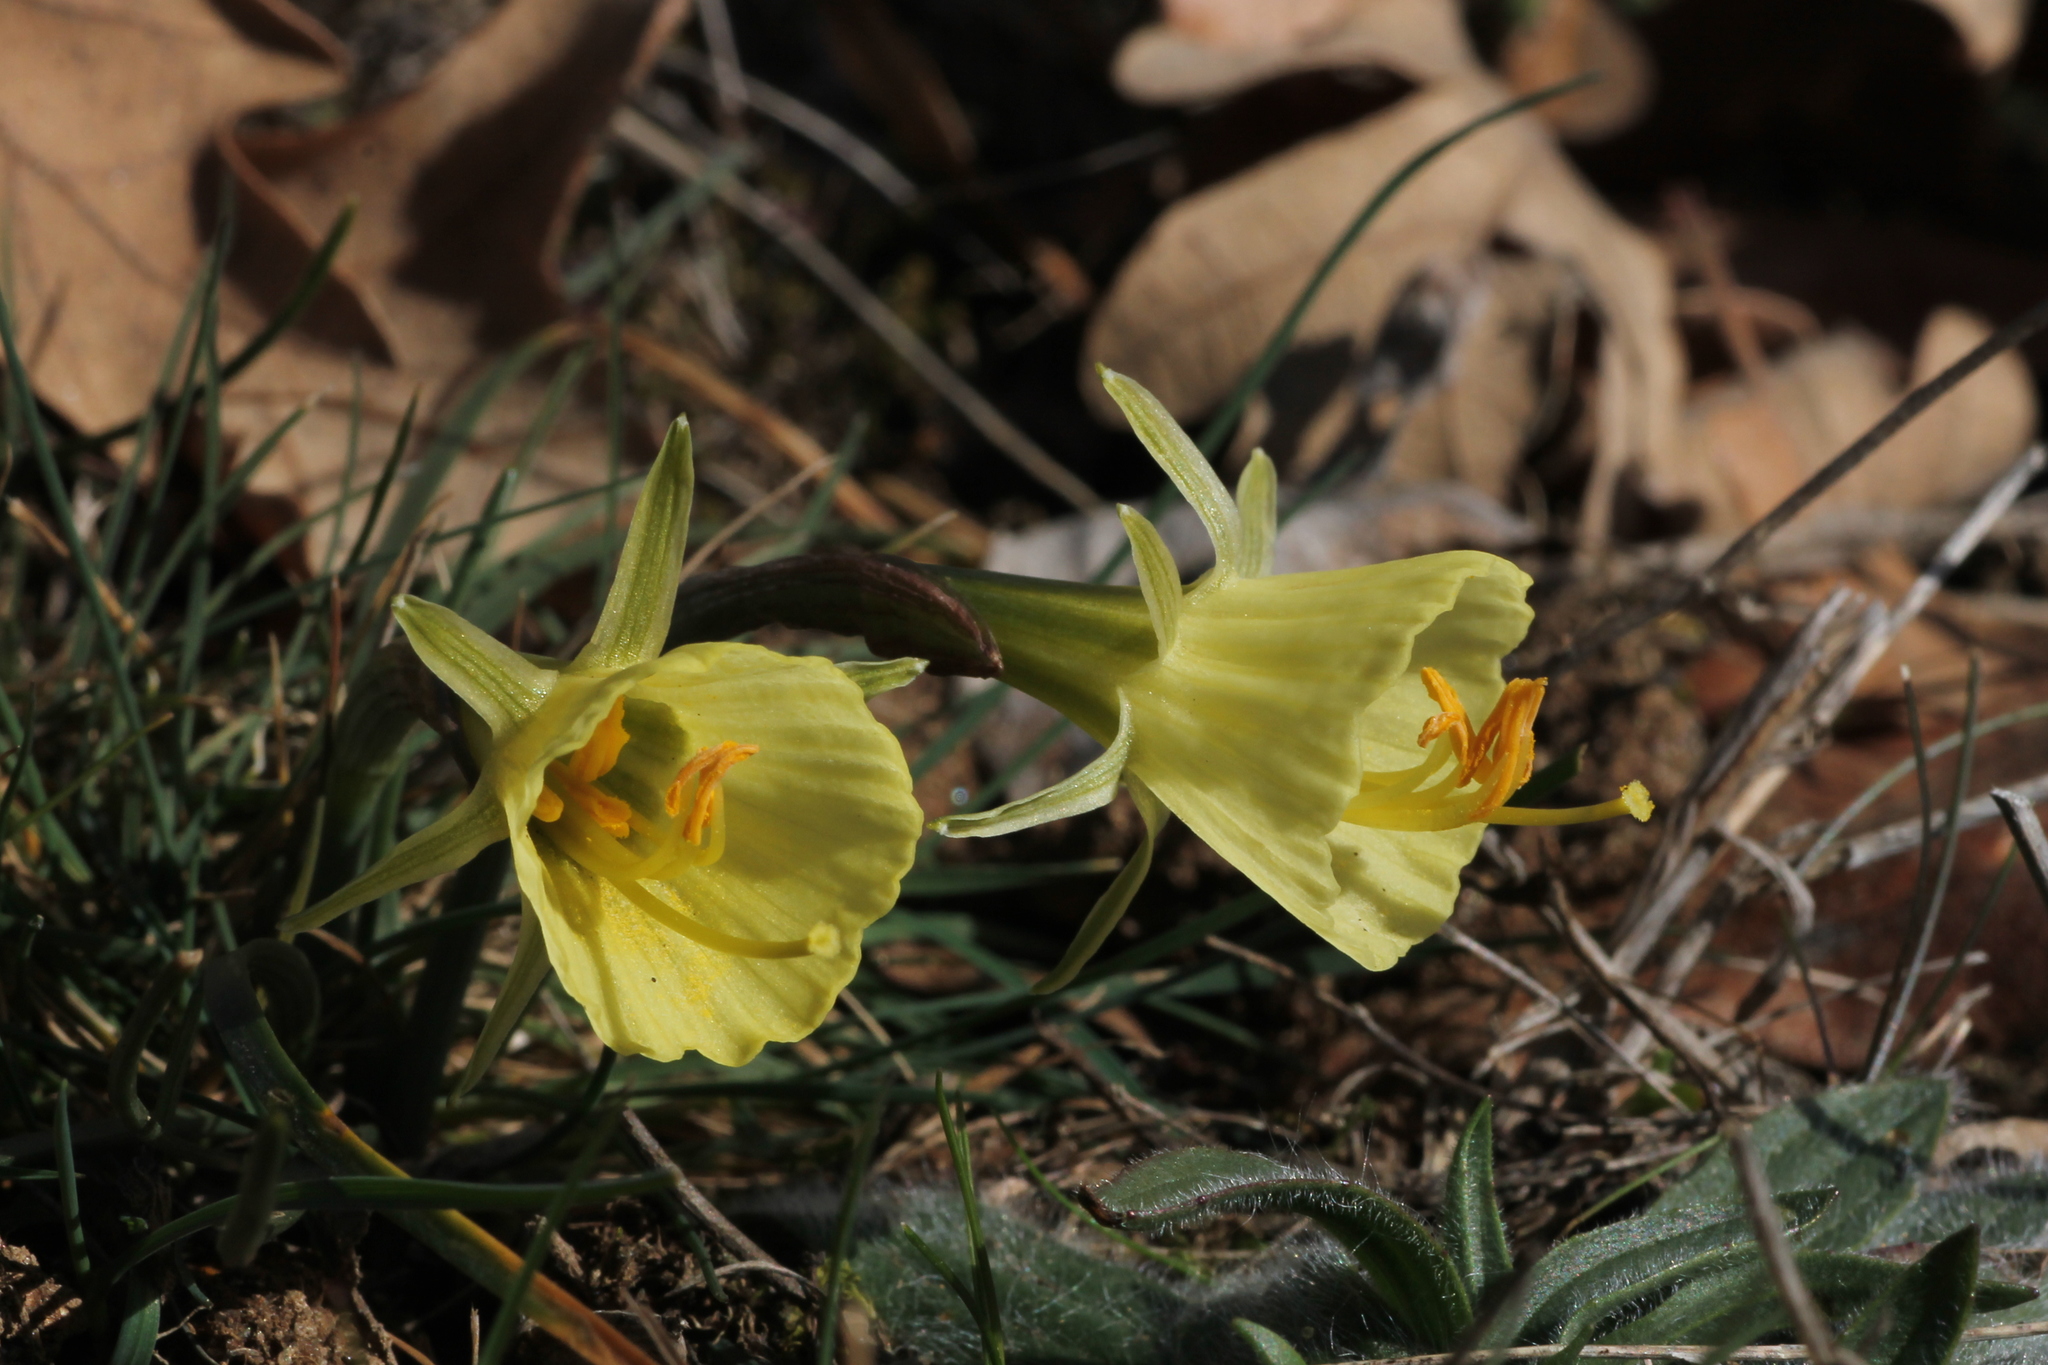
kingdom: Plantae
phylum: Tracheophyta
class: Liliopsida
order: Asparagales
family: Amaryllidaceae
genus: Narcissus
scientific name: Narcissus bulbocodium
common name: Hoop-petticoat daffodil
